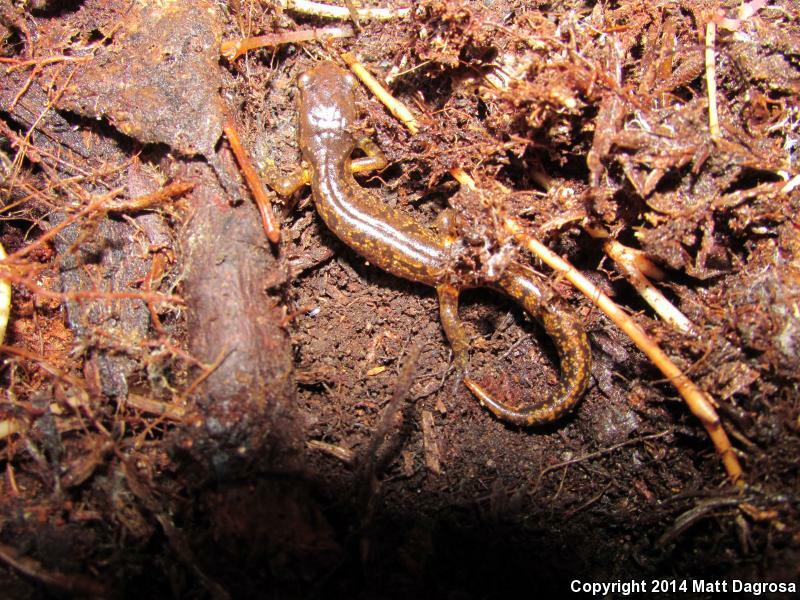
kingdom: Animalia
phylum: Chordata
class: Amphibia
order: Caudata
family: Plethodontidae
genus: Ensatina
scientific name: Ensatina eschscholtzii
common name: Ensatina
